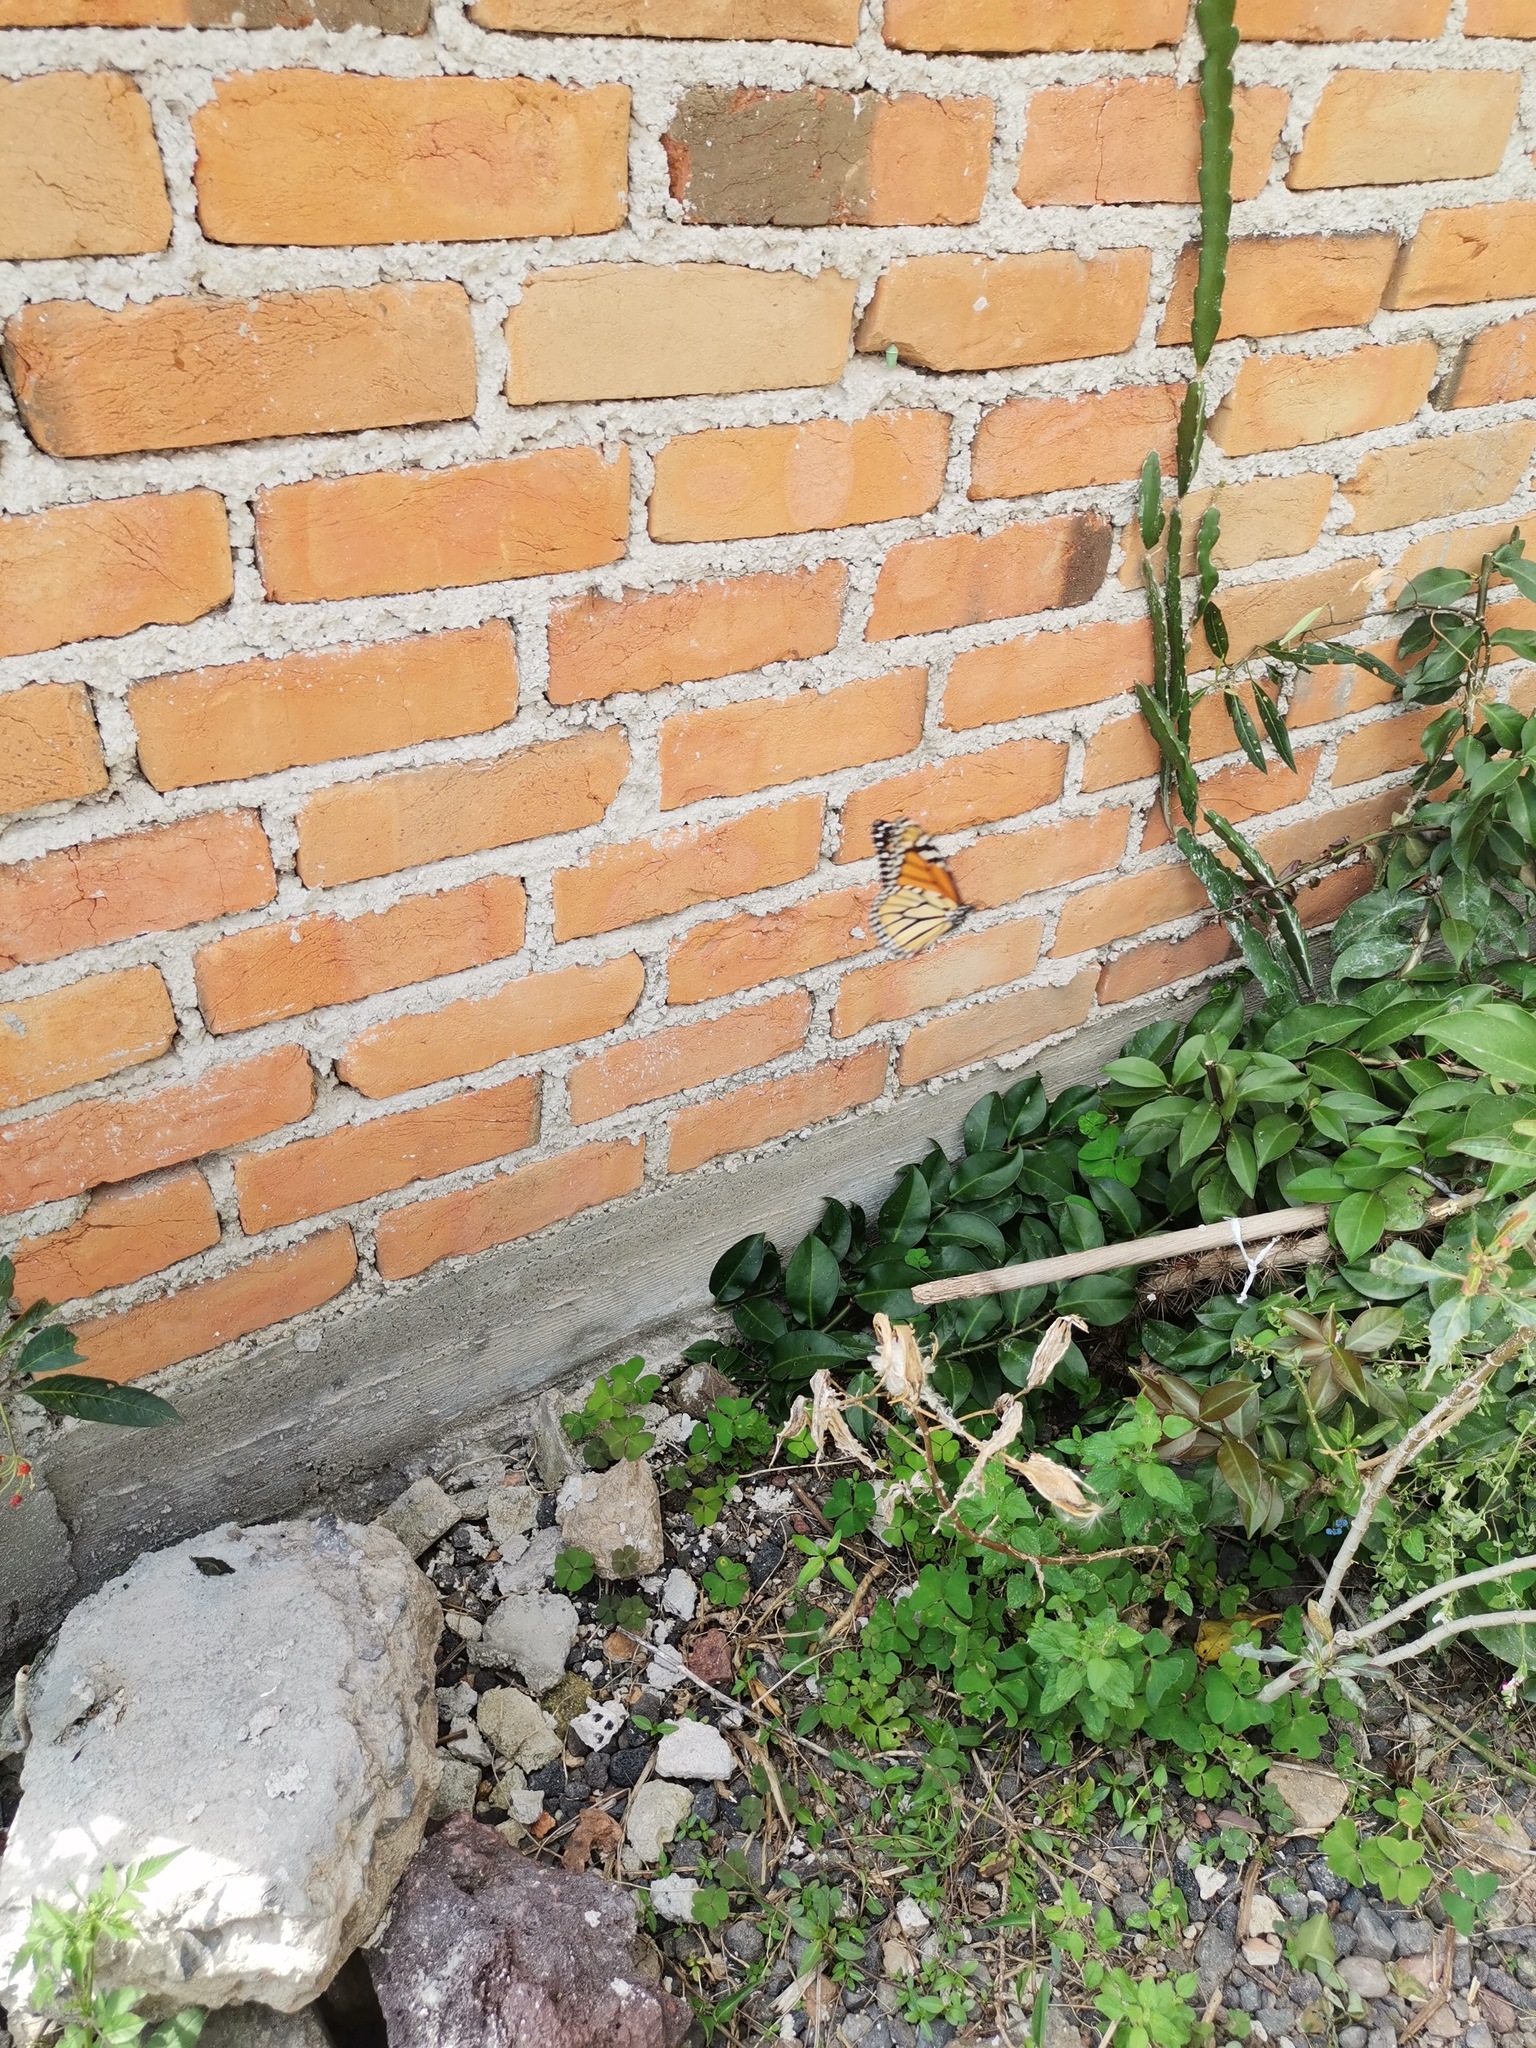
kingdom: Animalia
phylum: Arthropoda
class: Insecta
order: Lepidoptera
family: Nymphalidae
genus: Danaus
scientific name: Danaus plexippus
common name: Monarch
